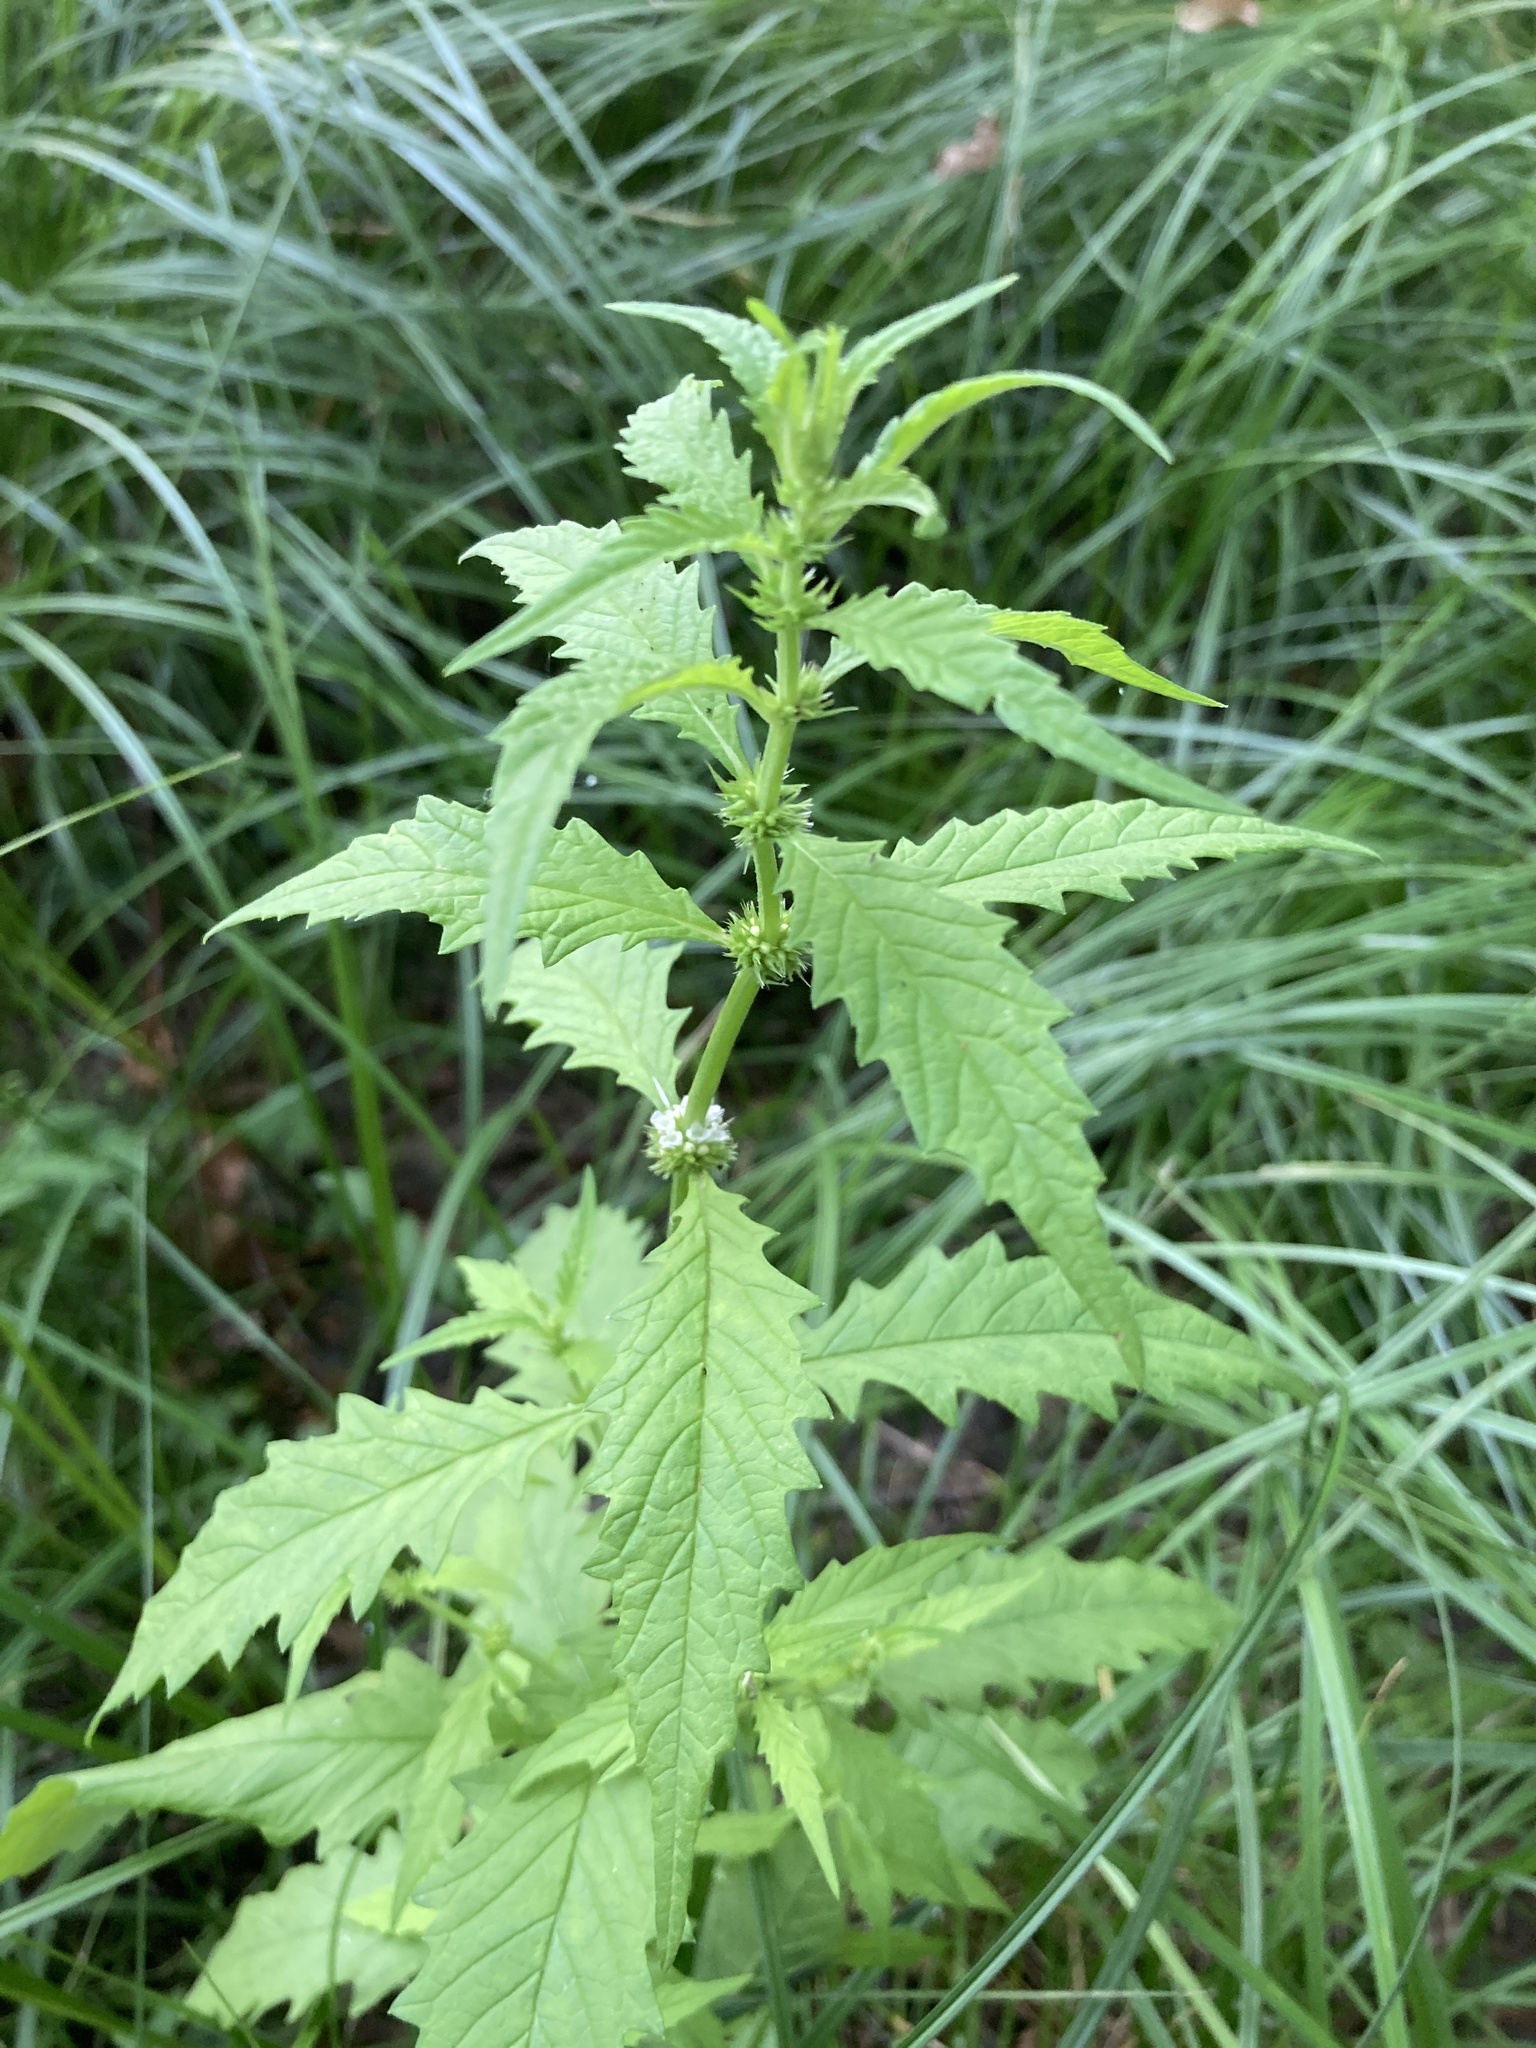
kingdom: Plantae
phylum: Tracheophyta
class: Magnoliopsida
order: Lamiales
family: Lamiaceae
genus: Lycopus
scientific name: Lycopus europaeus
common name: European bugleweed
